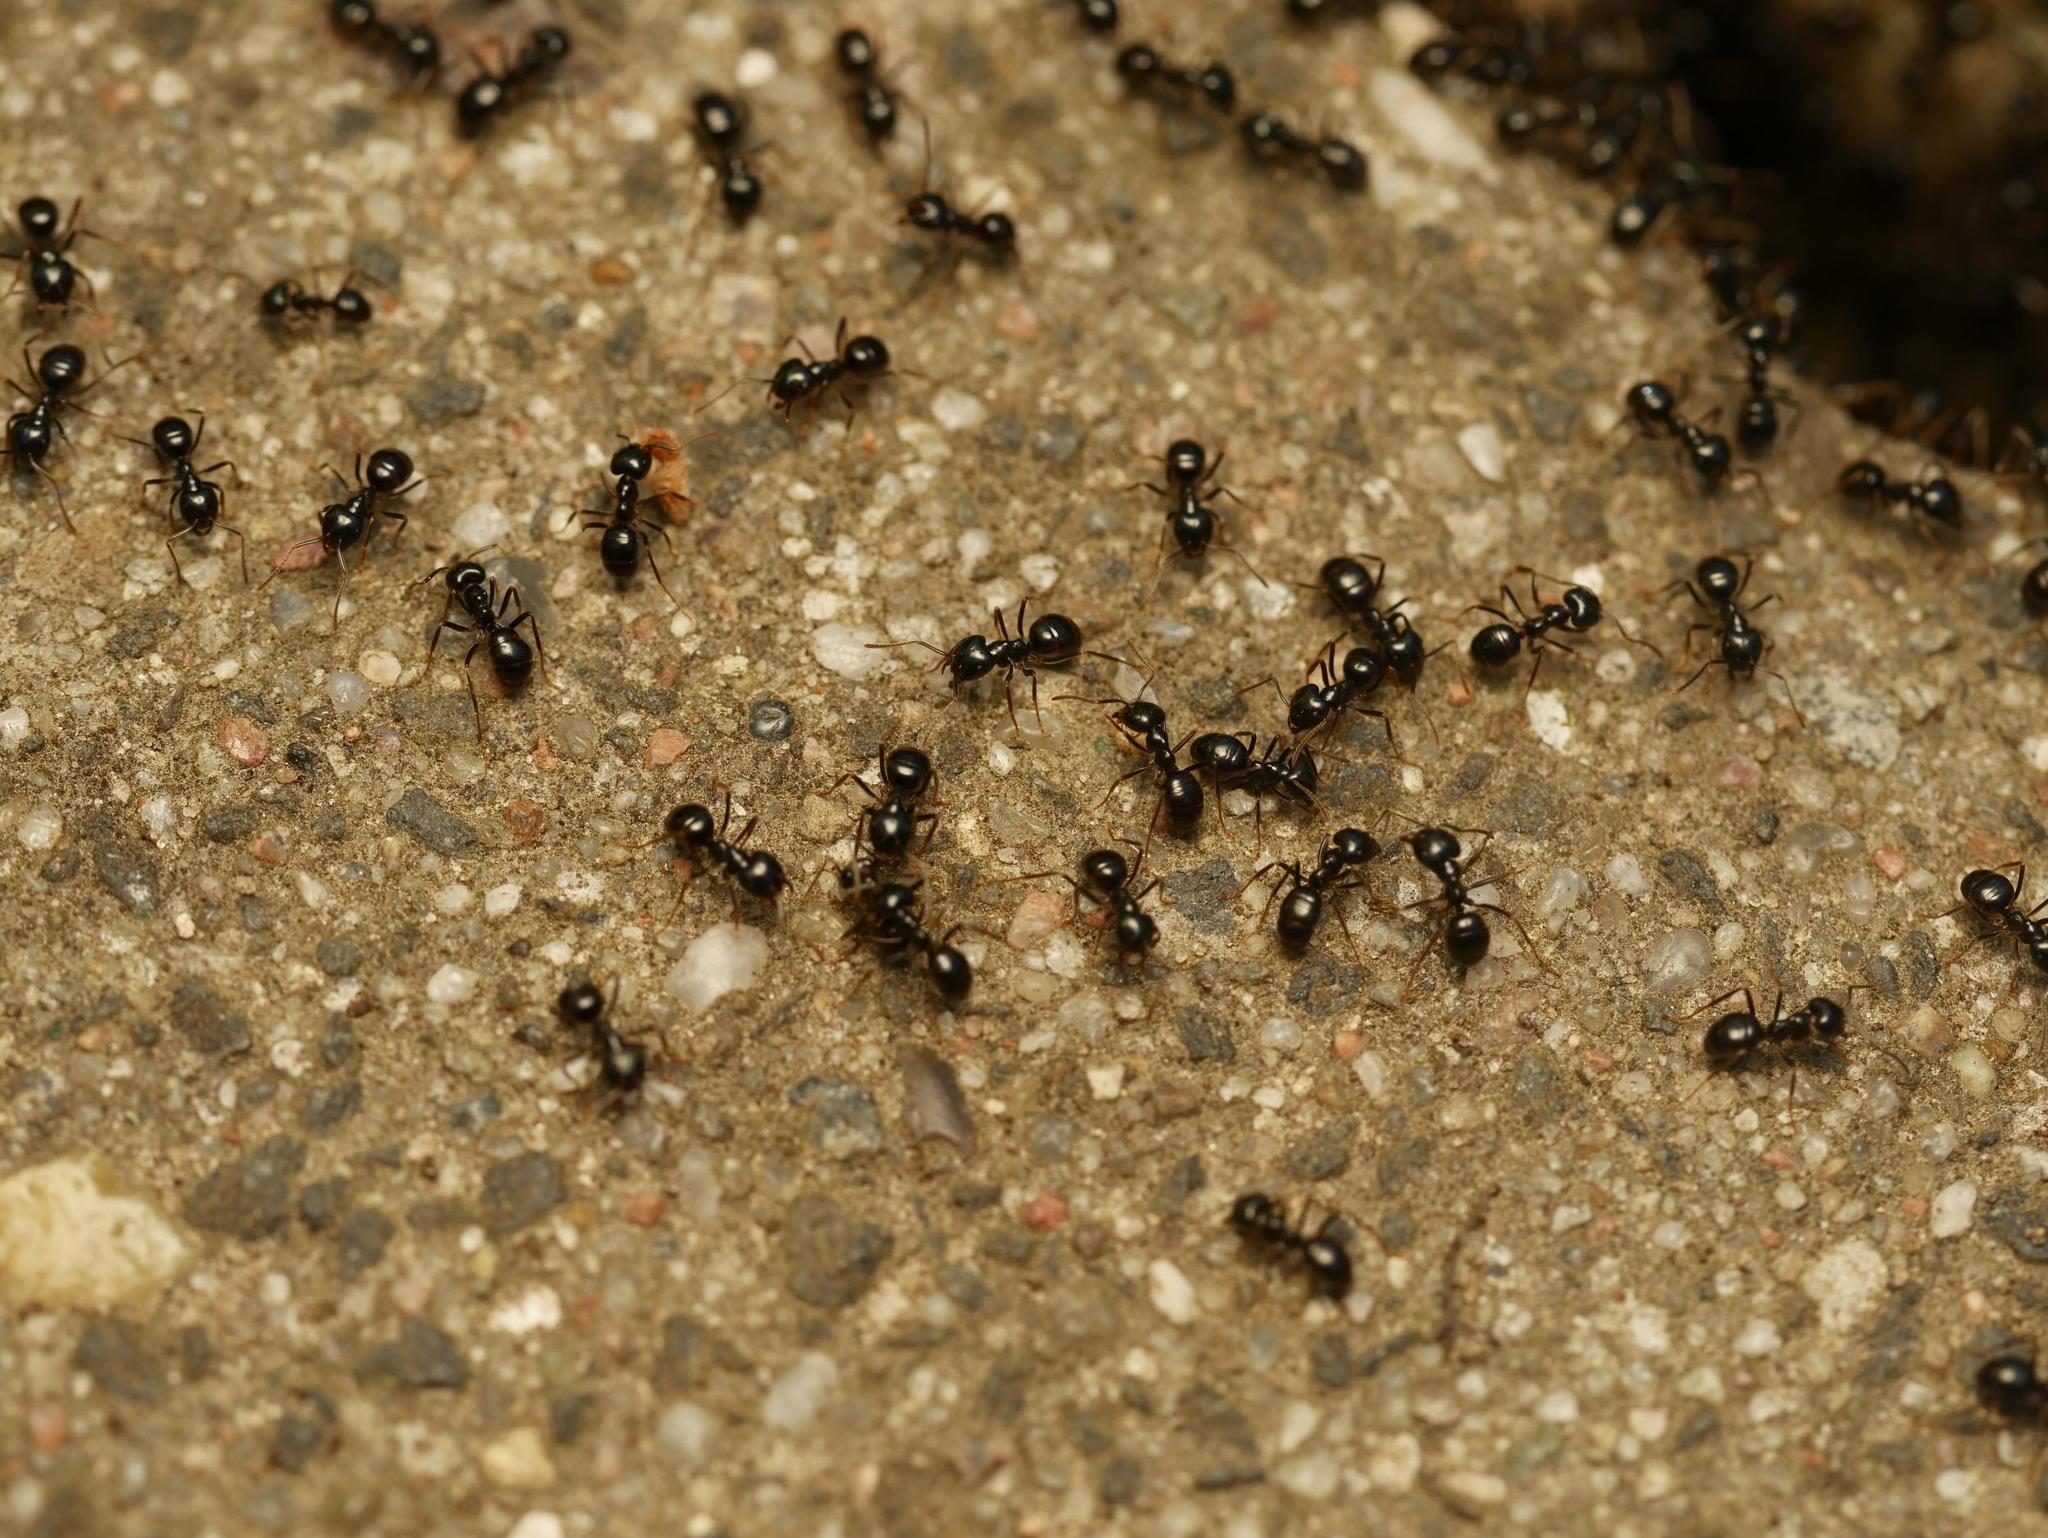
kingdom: Animalia
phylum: Arthropoda
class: Insecta
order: Hymenoptera
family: Formicidae
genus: Lasius
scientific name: Lasius fuliginosus
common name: Jet ant
